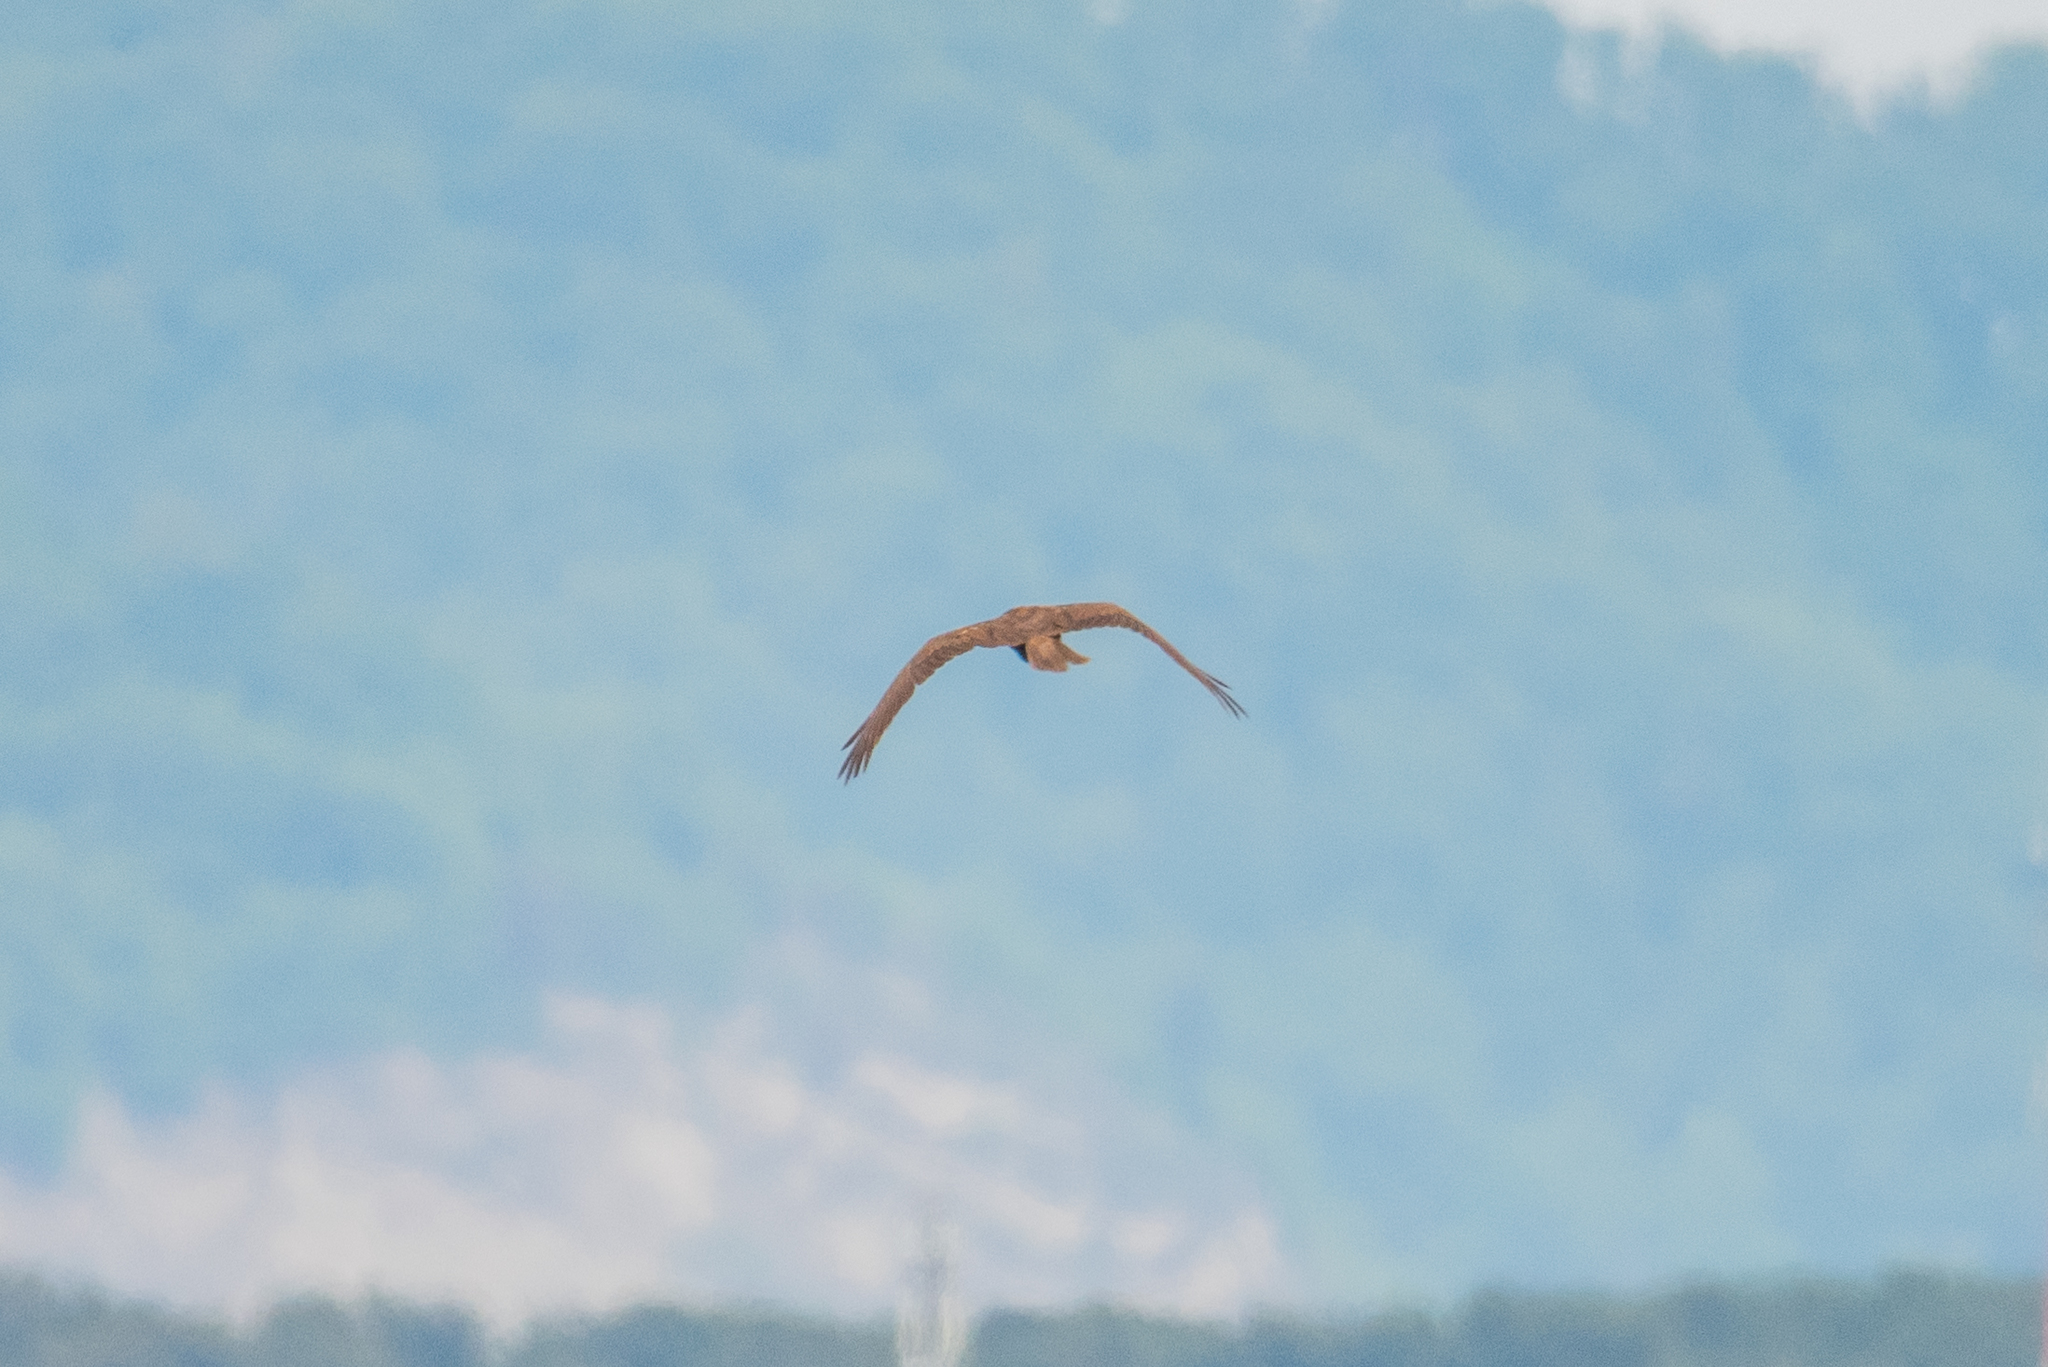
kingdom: Animalia
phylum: Chordata
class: Aves
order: Accipitriformes
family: Accipitridae
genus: Circus
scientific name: Circus aeruginosus
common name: Western marsh harrier
